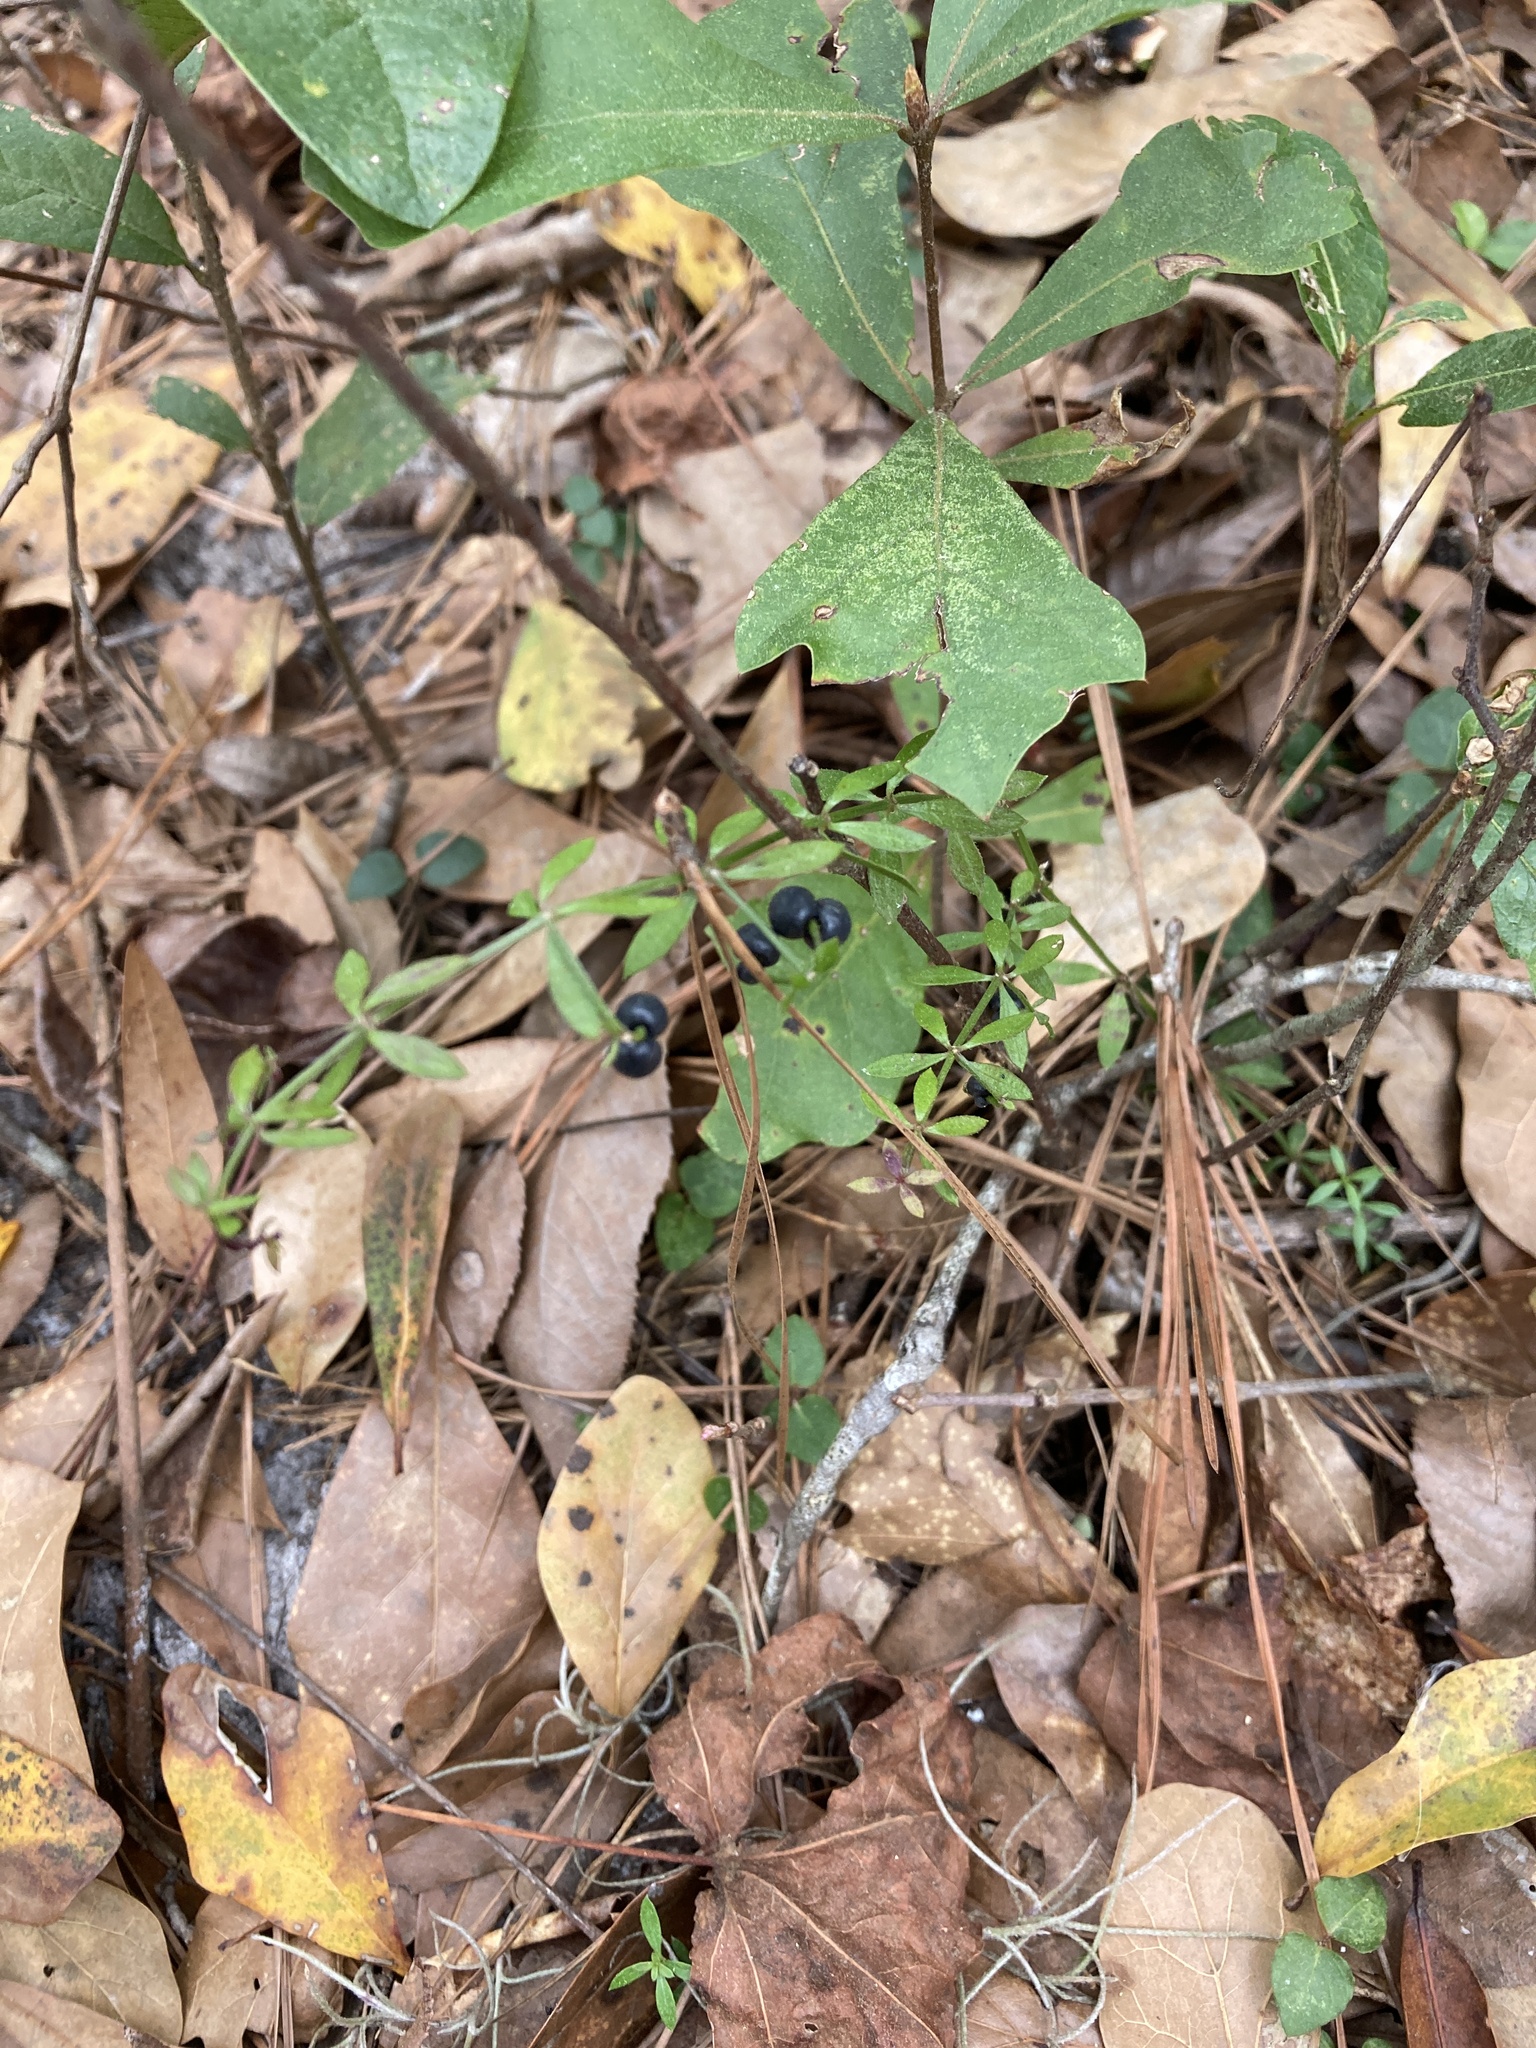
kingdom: Plantae
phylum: Tracheophyta
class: Magnoliopsida
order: Gentianales
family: Rubiaceae
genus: Galium
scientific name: Galium bermudense
